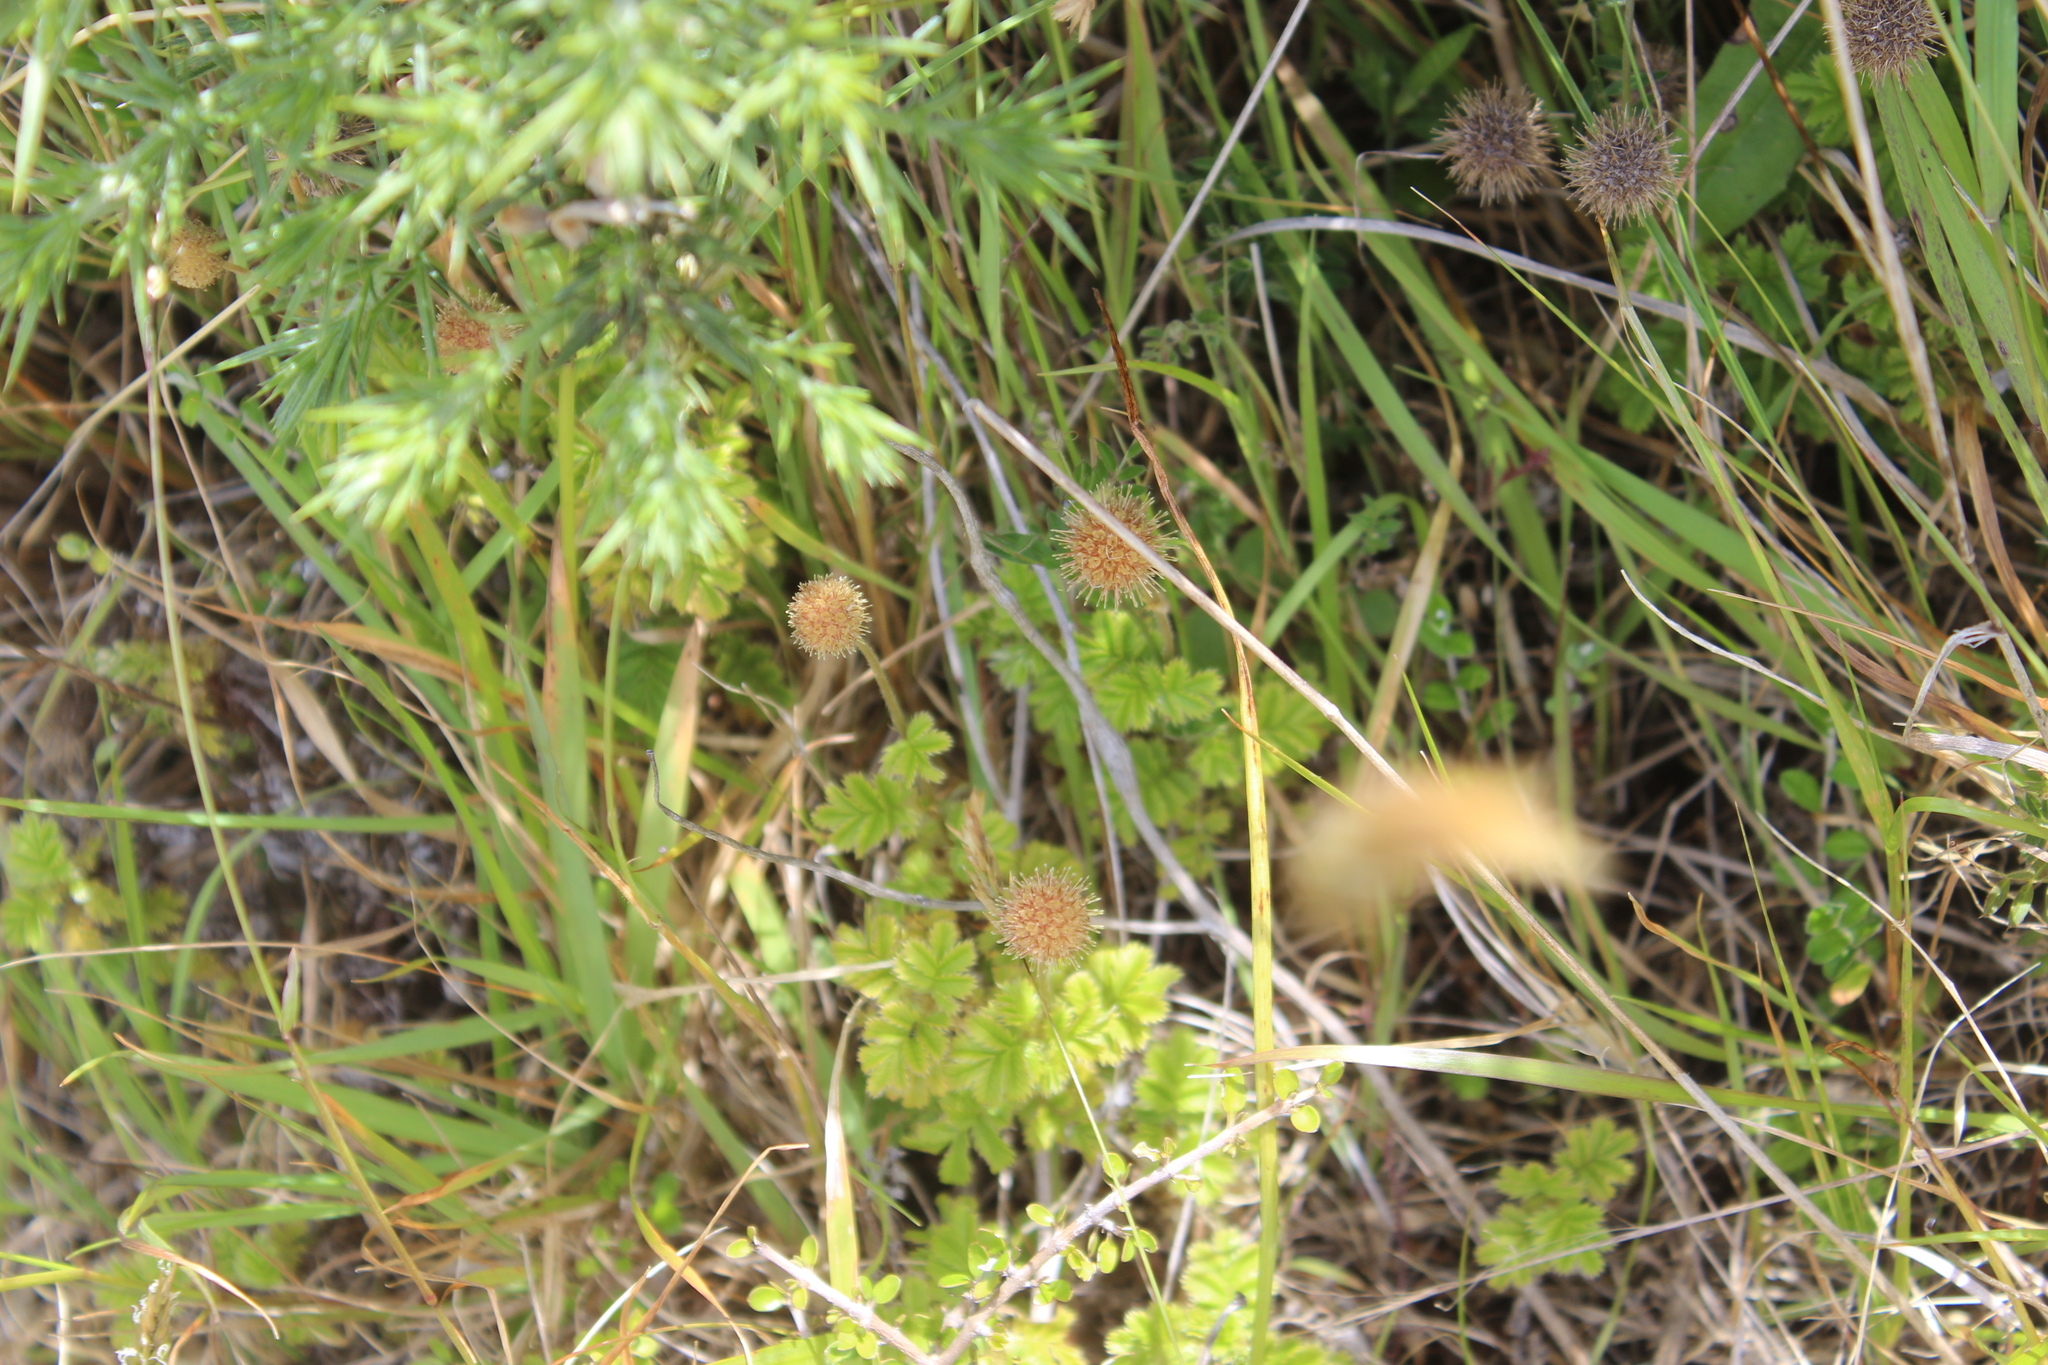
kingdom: Plantae
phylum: Tracheophyta
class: Magnoliopsida
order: Rosales
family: Rosaceae
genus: Acaena
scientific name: Acaena anserinifolia
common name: Bronze pirri-pirri-bur
